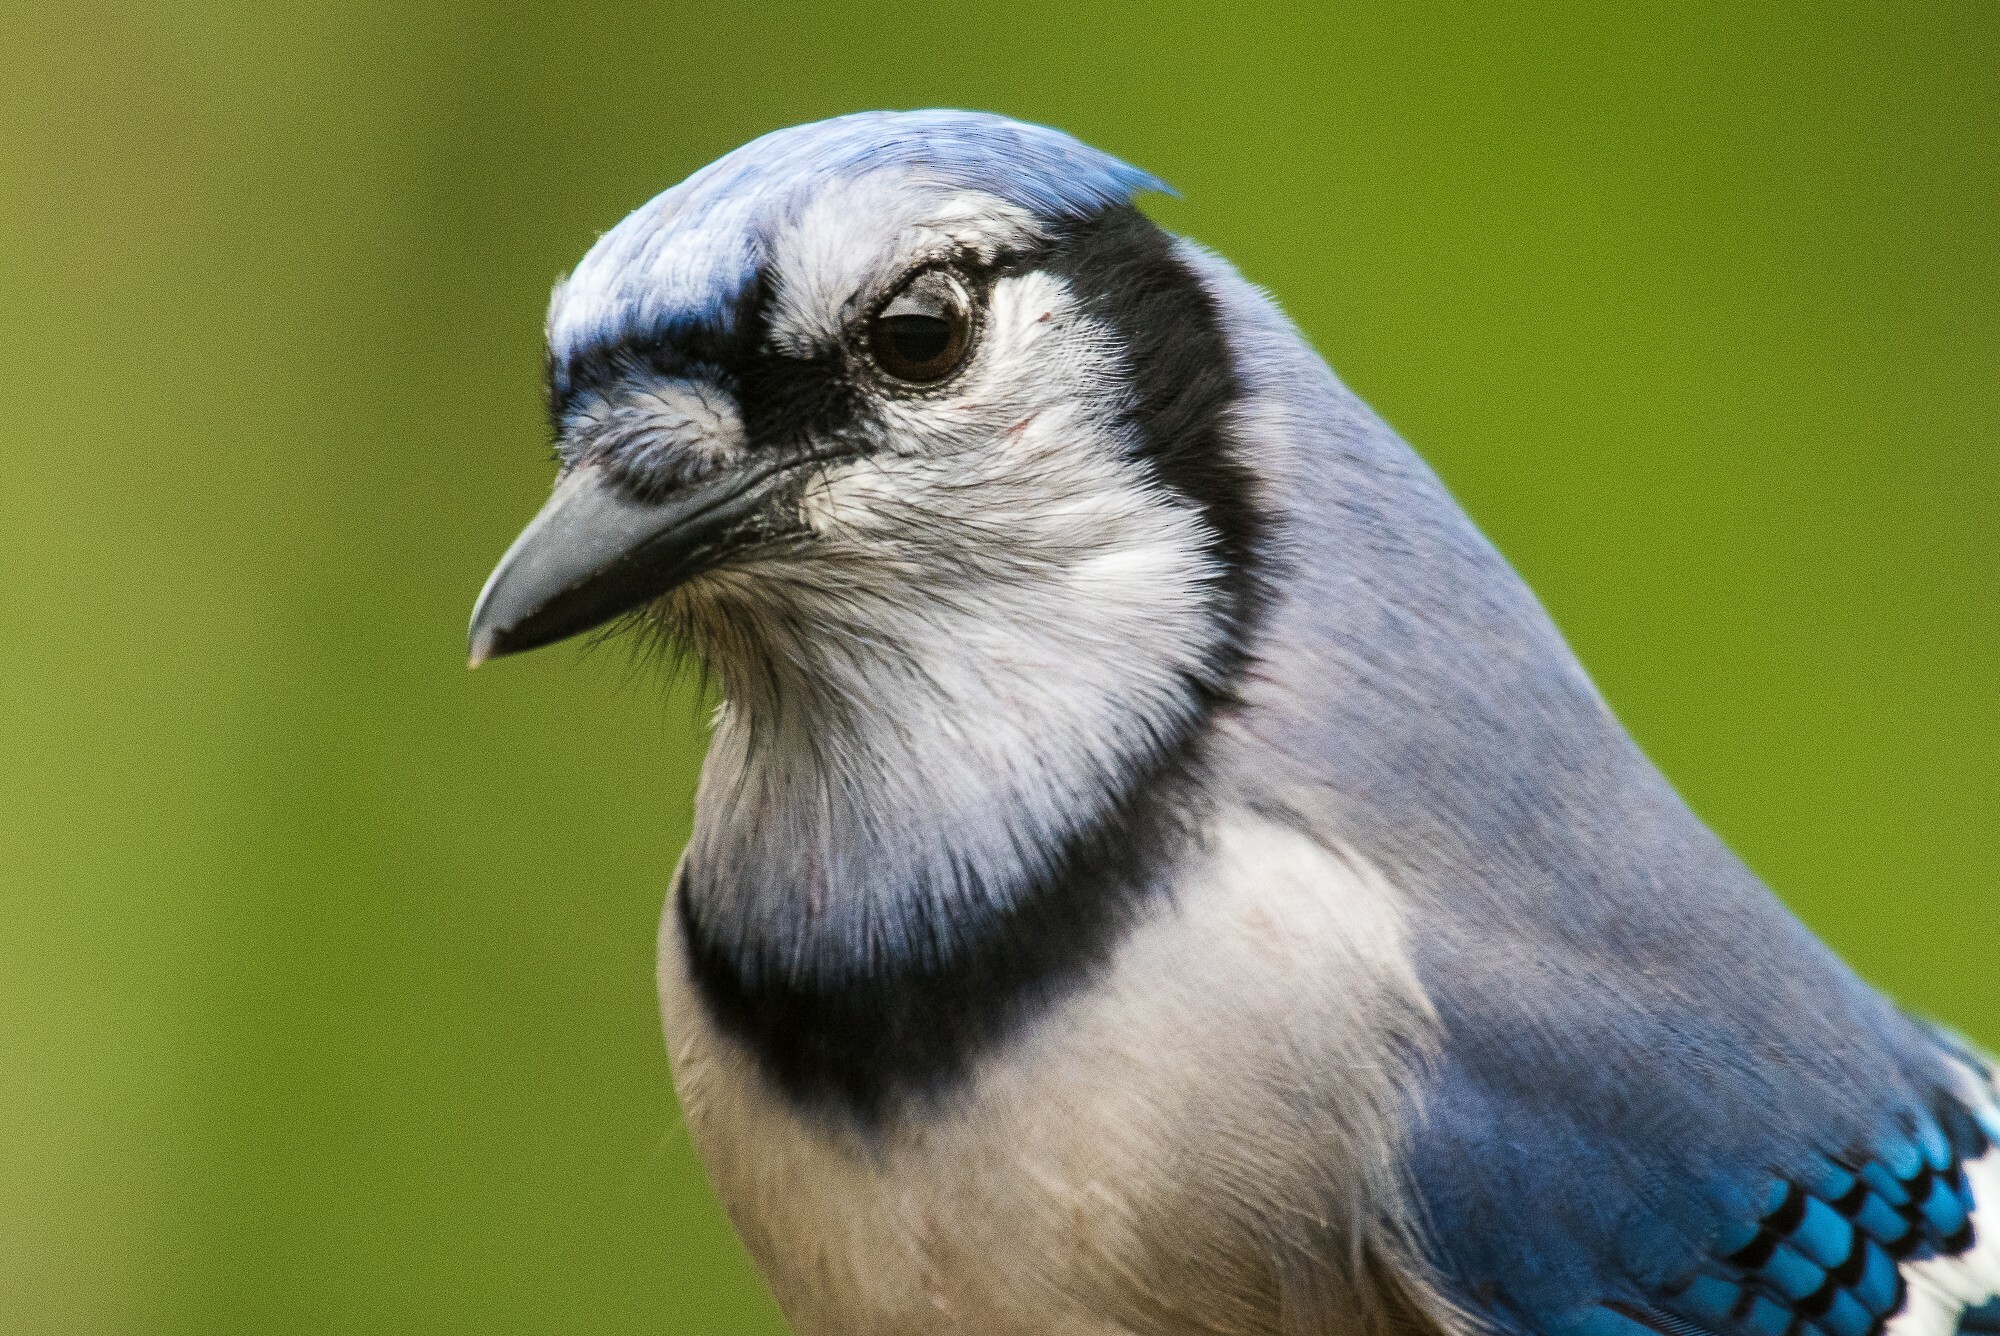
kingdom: Animalia
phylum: Chordata
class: Aves
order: Passeriformes
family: Corvidae
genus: Cyanocitta
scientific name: Cyanocitta cristata
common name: Blue jay
